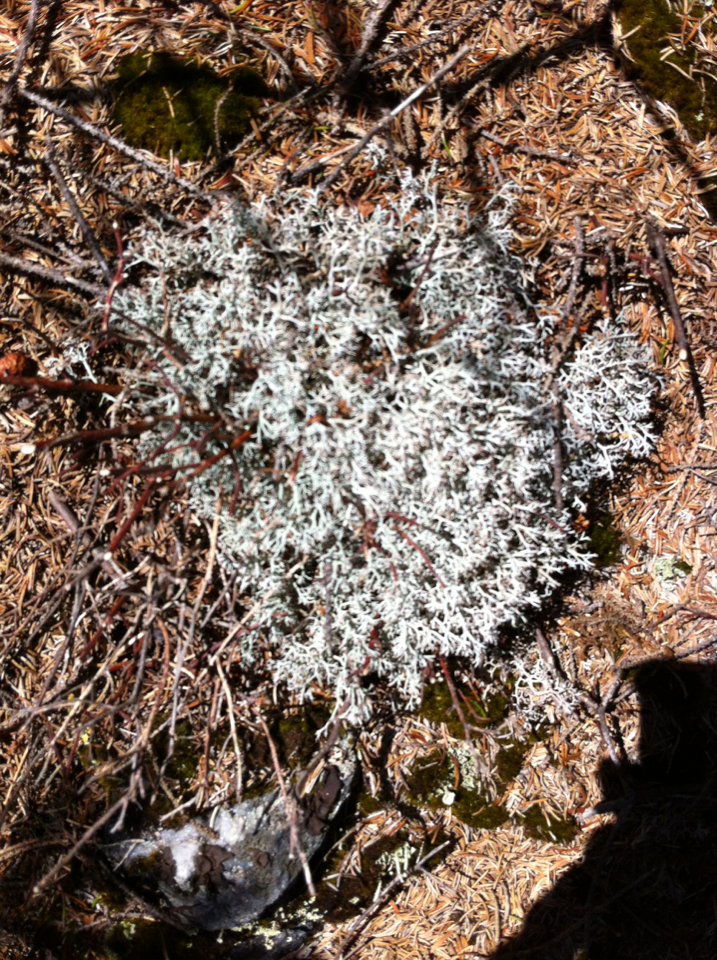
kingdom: Fungi
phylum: Ascomycota
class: Lecanoromycetes
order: Lecanorales
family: Cladoniaceae
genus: Cladonia
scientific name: Cladonia rangiferina
